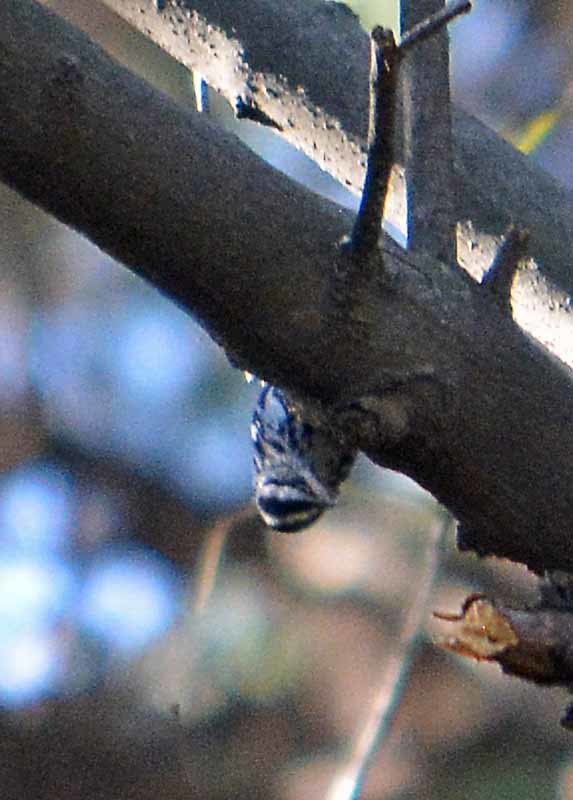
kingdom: Animalia
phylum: Chordata
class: Aves
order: Passeriformes
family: Parulidae
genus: Mniotilta
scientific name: Mniotilta varia
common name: Black-and-white warbler
